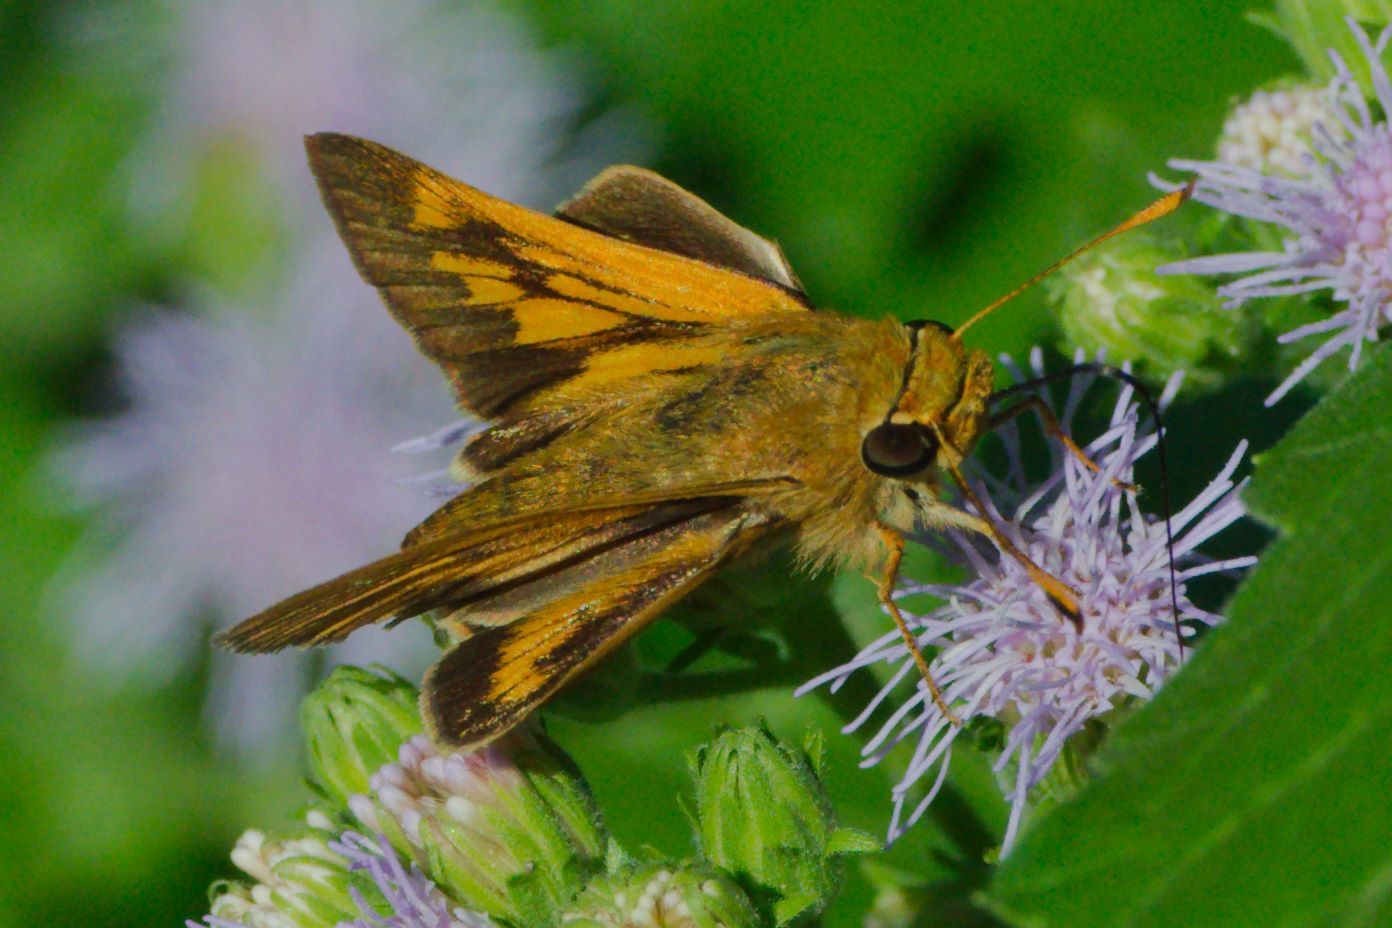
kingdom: Animalia
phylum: Arthropoda
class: Insecta
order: Lepidoptera
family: Hesperiidae
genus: Mellana
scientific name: Mellana eulogius
